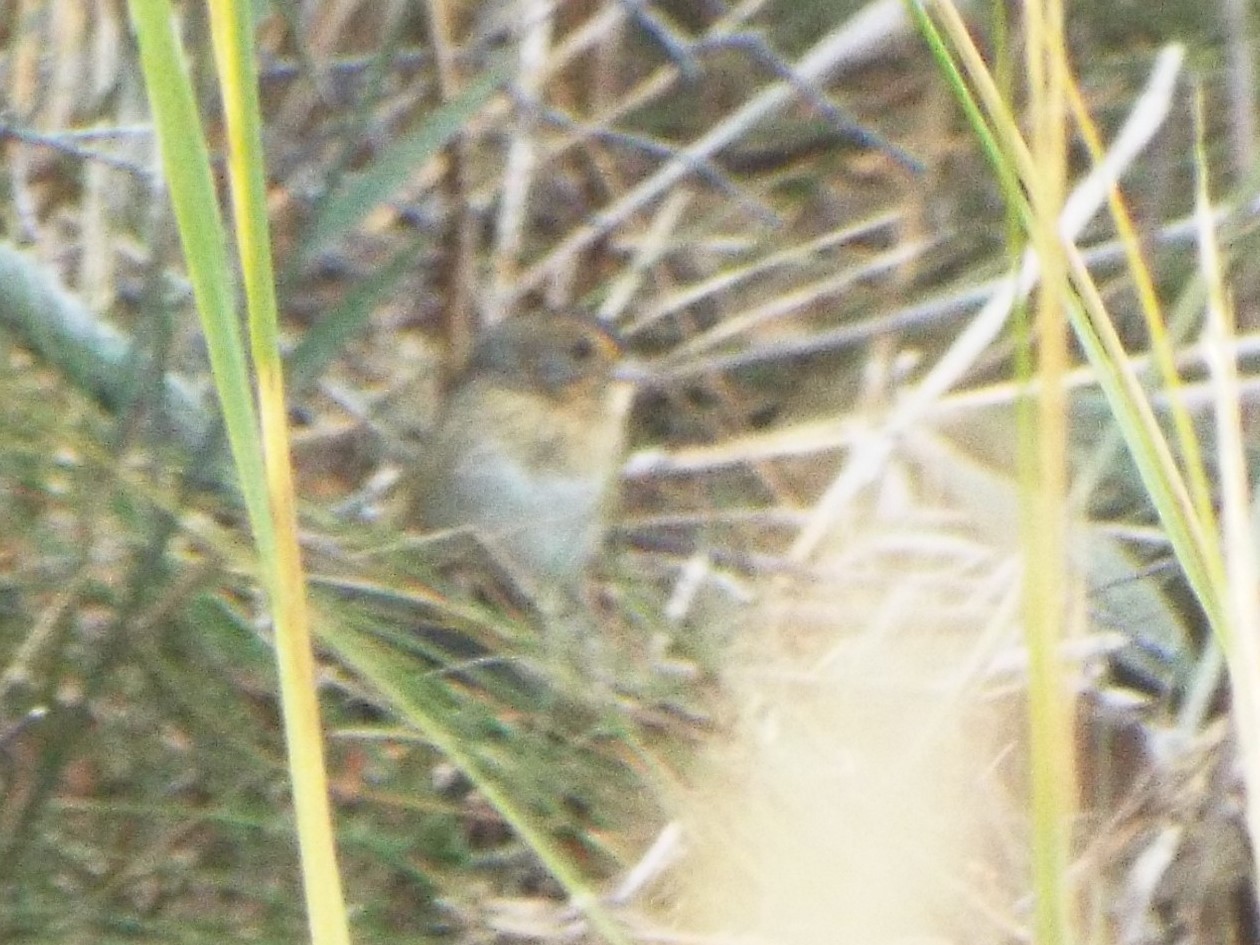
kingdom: Animalia
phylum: Chordata
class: Aves
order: Passeriformes
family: Passerellidae
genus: Ammospiza
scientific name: Ammospiza nelsoni
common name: Nelson's sparrow
